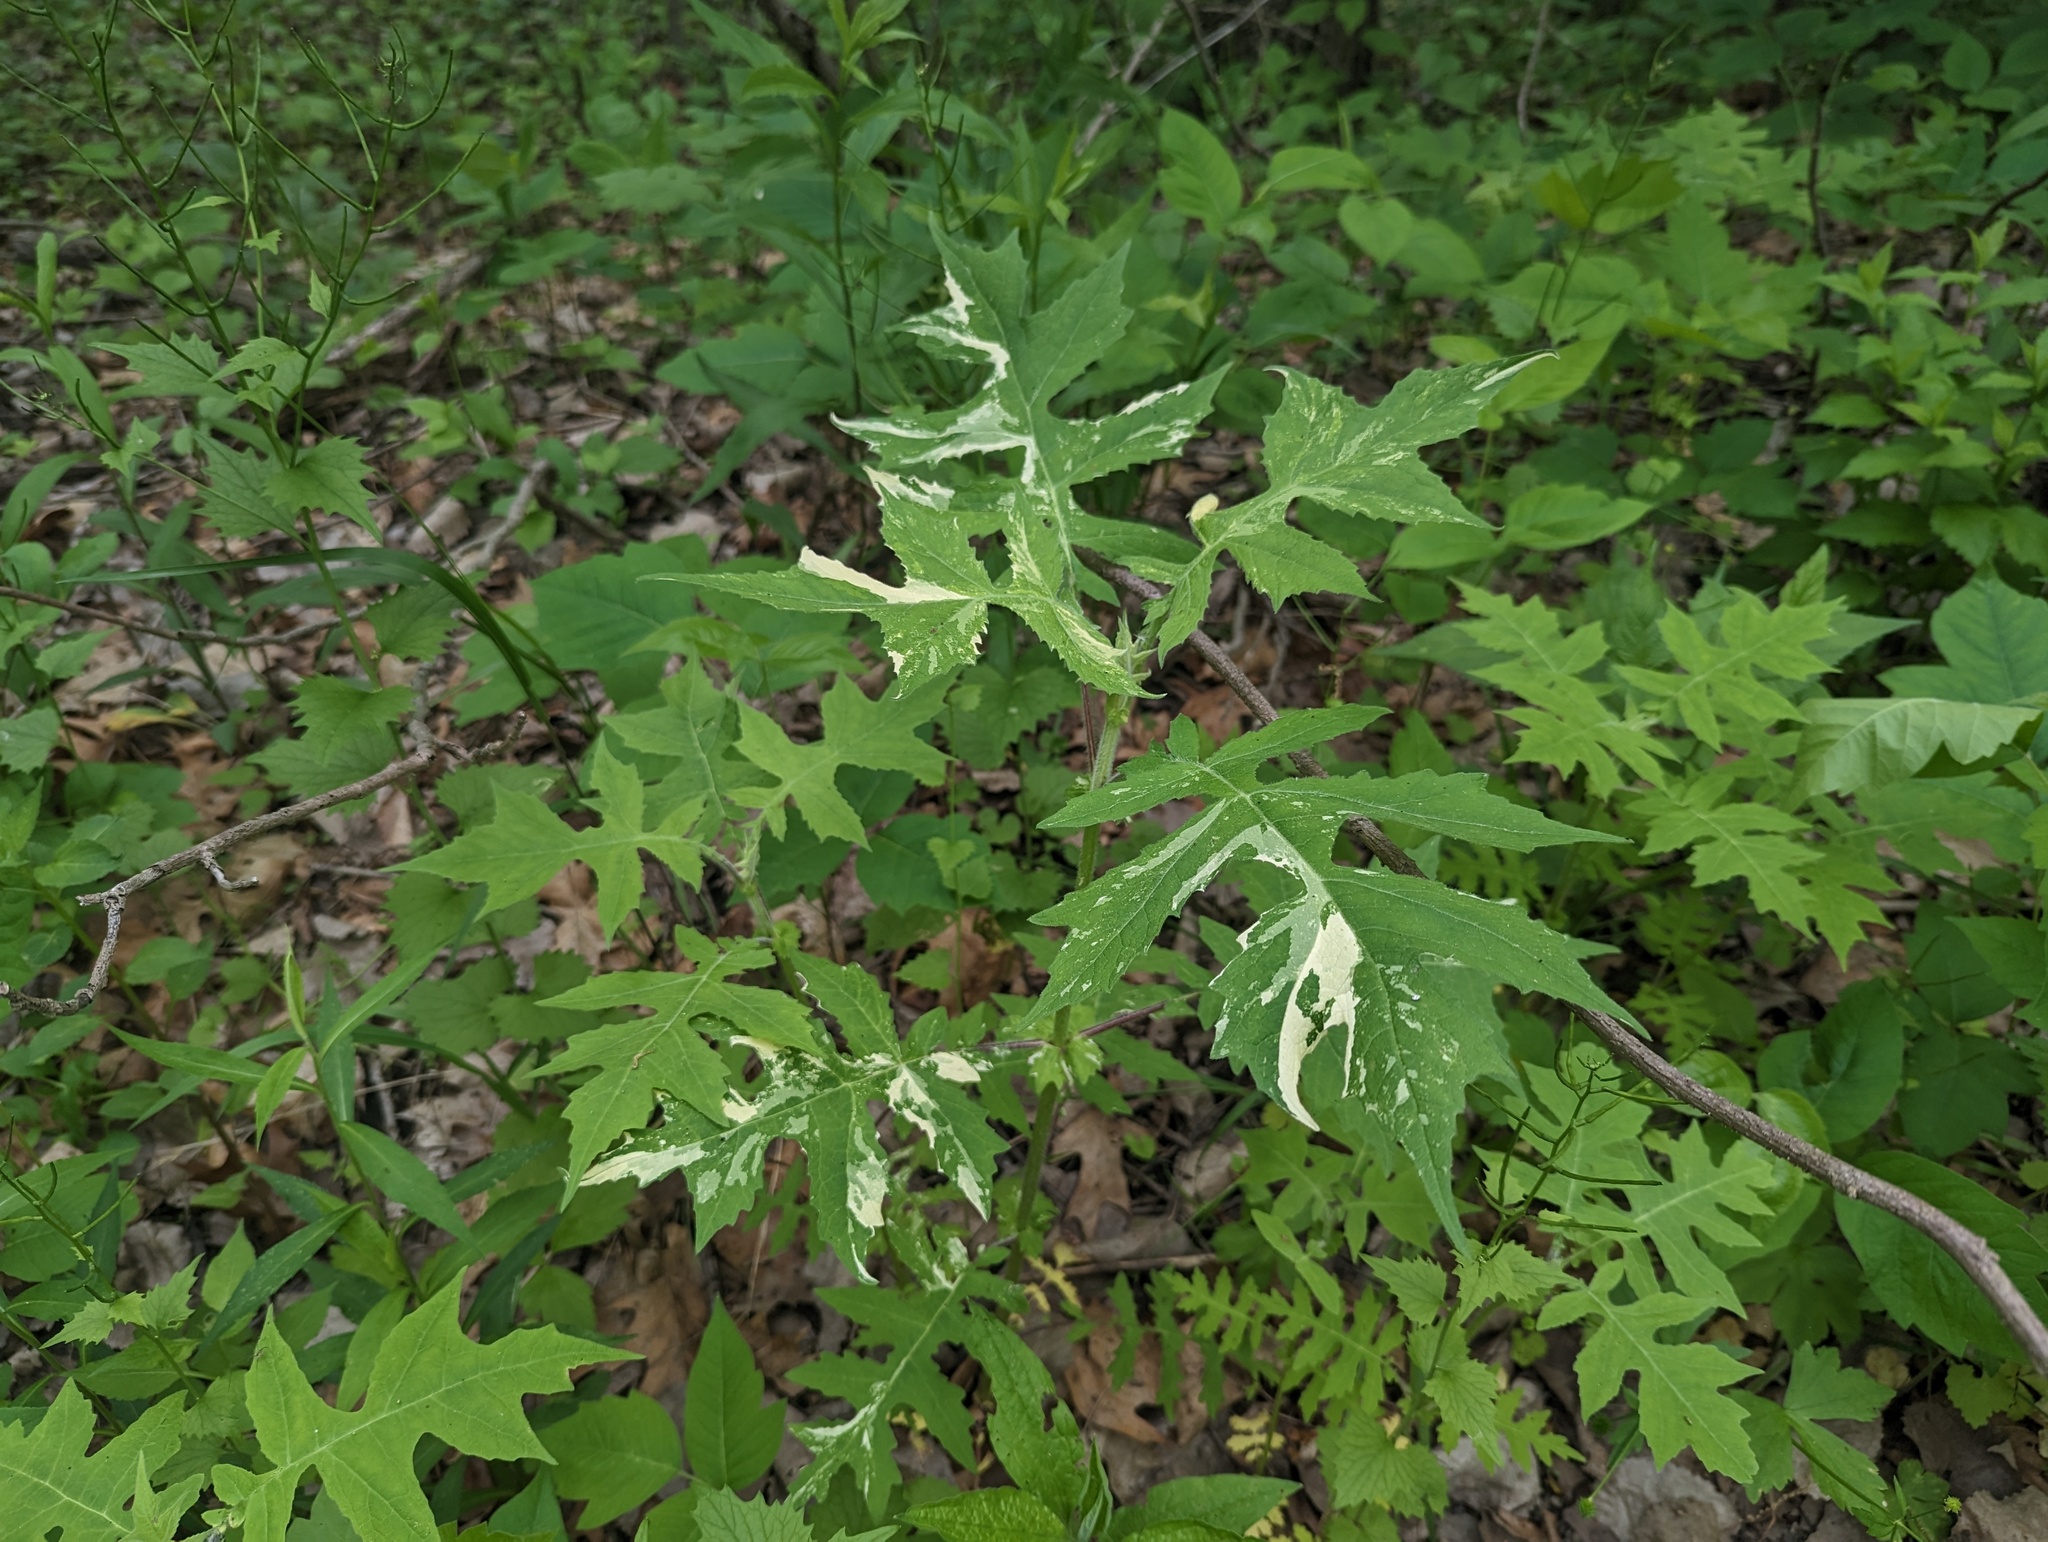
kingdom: Plantae
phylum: Tracheophyta
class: Magnoliopsida
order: Asterales
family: Asteraceae
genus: Polymnia
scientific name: Polymnia canadensis
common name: Pale-flowered leafcup
